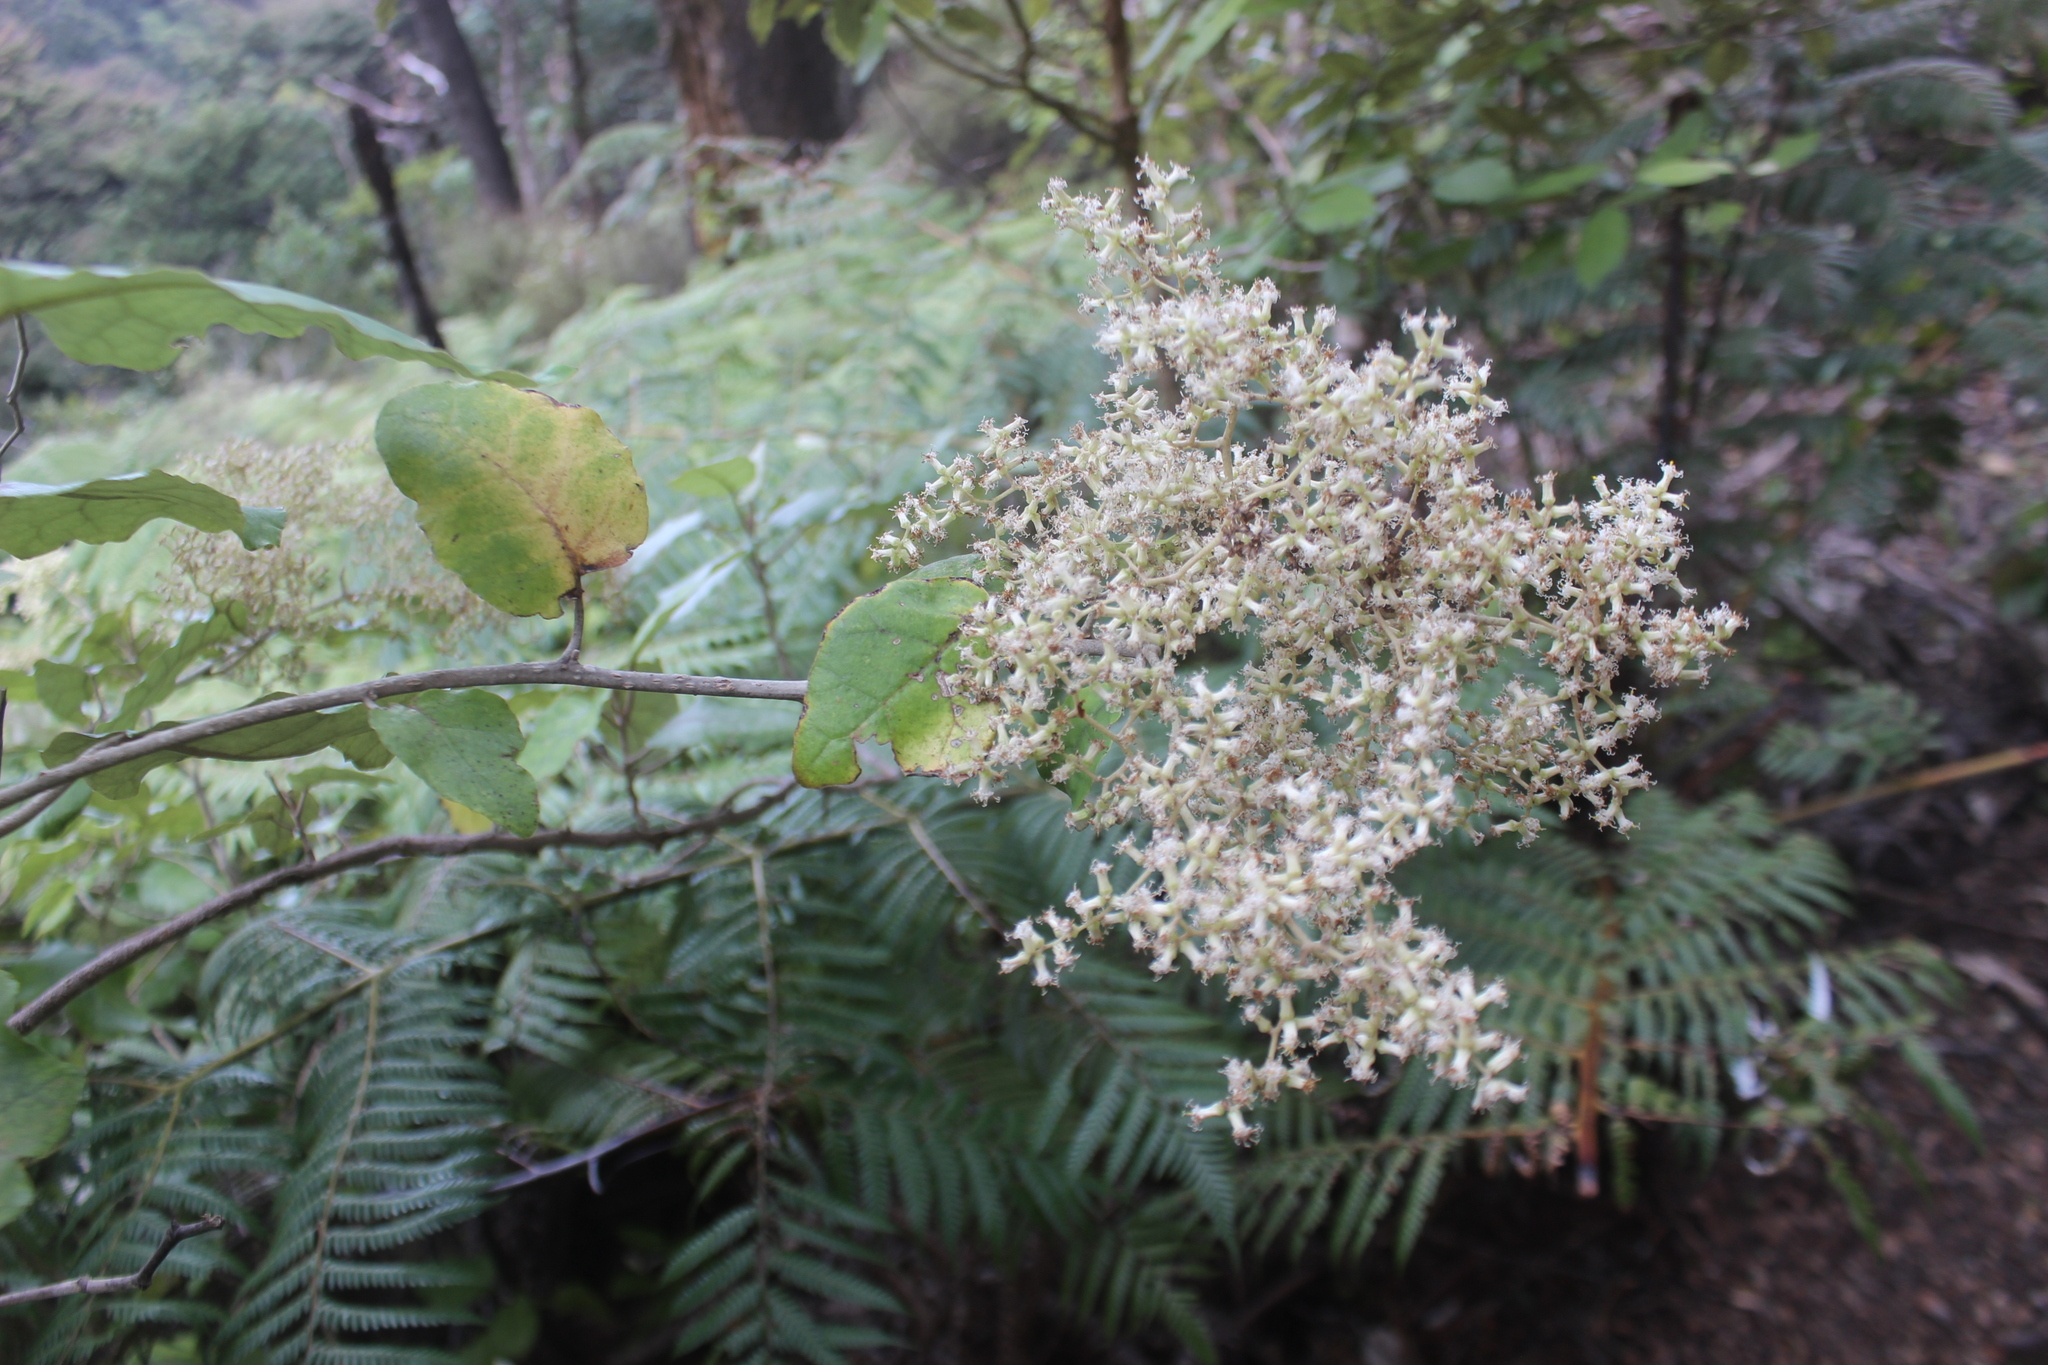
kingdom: Plantae
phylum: Tracheophyta
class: Magnoliopsida
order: Asterales
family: Asteraceae
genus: Brachyglottis
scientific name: Brachyglottis repanda
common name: Hedge ragwort
